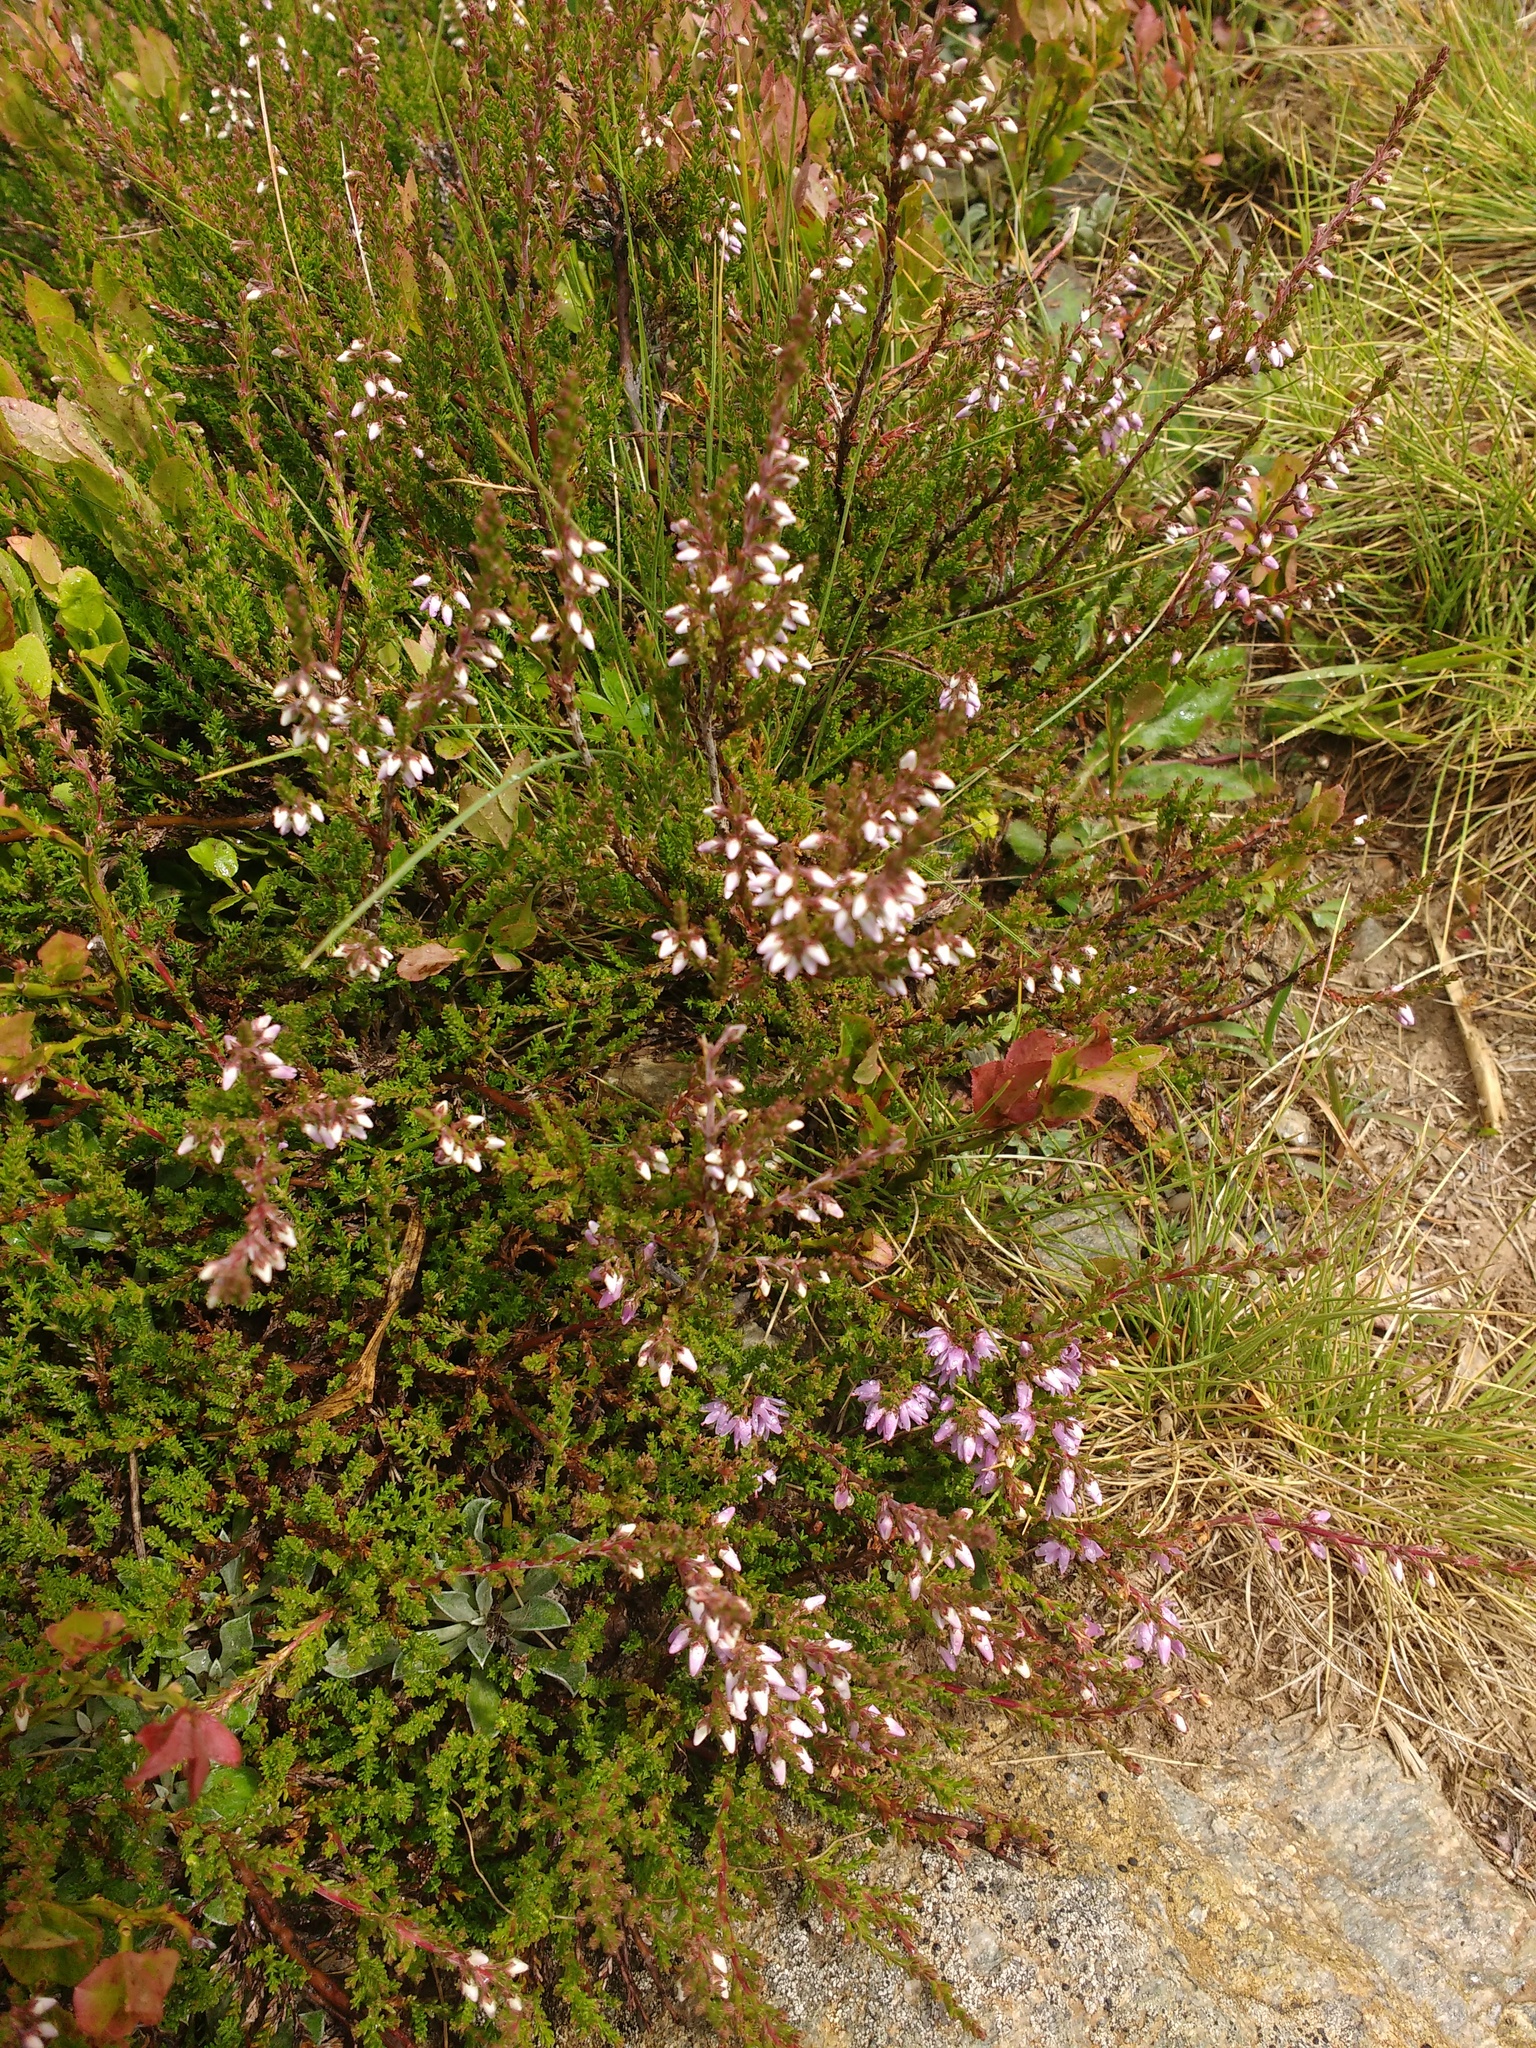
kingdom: Plantae
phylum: Tracheophyta
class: Magnoliopsida
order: Ericales
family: Ericaceae
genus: Calluna
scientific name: Calluna vulgaris
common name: Heather
